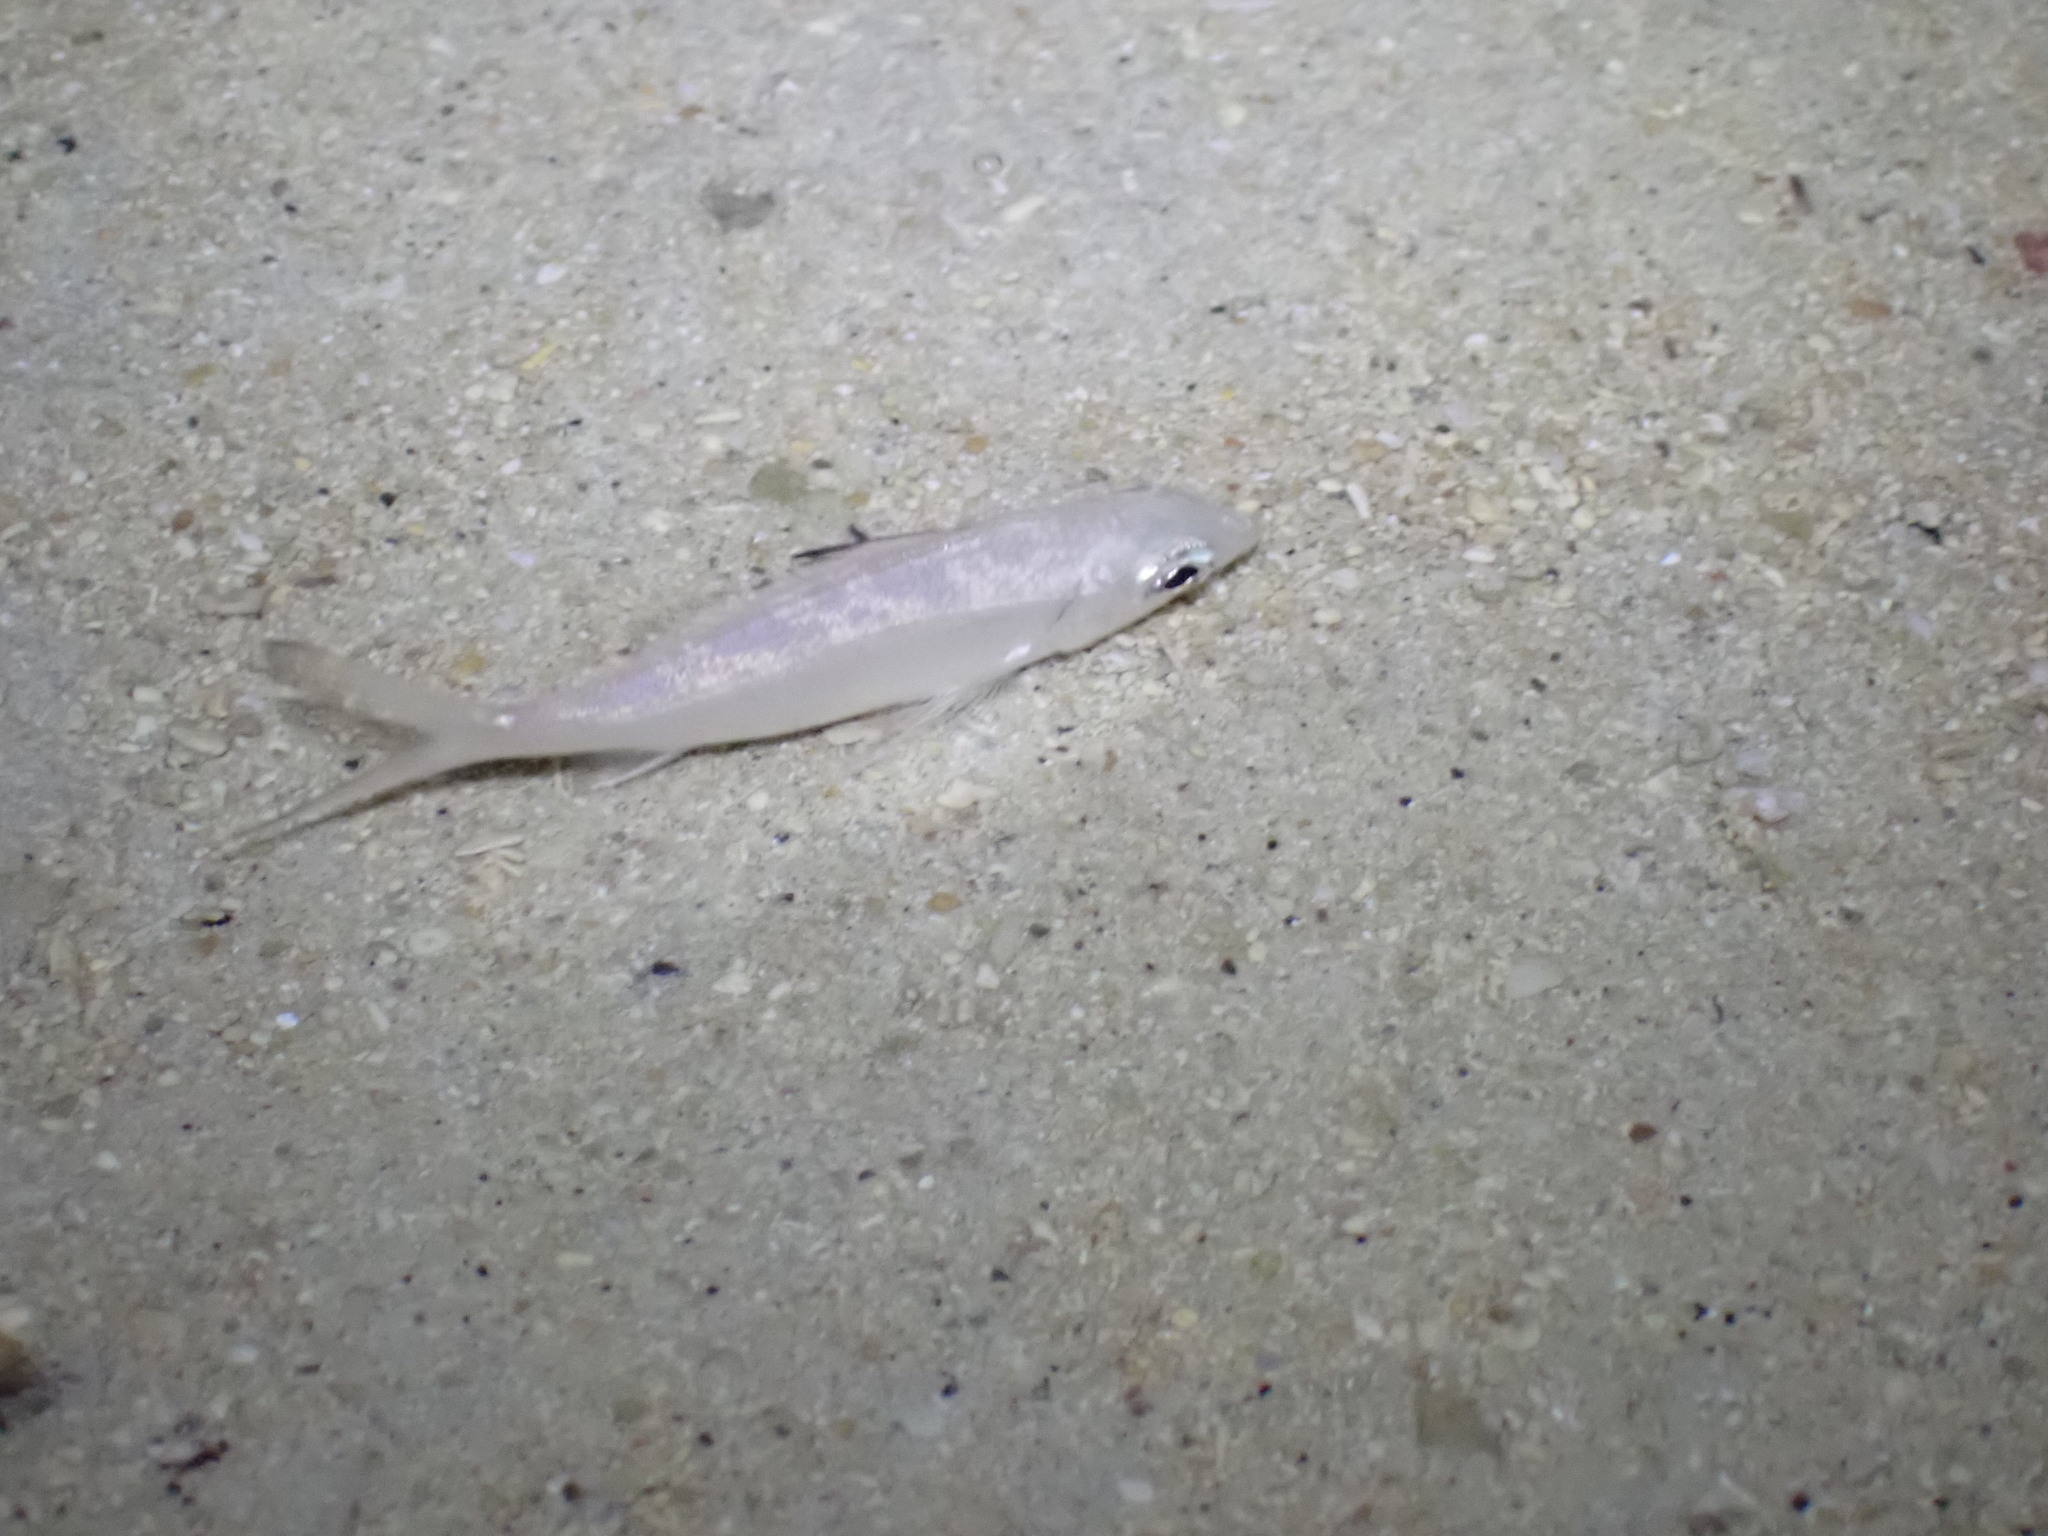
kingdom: Animalia
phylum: Chordata
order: Perciformes
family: Gerreidae
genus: Gerres
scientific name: Gerres oyena
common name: Common silver-biddy
